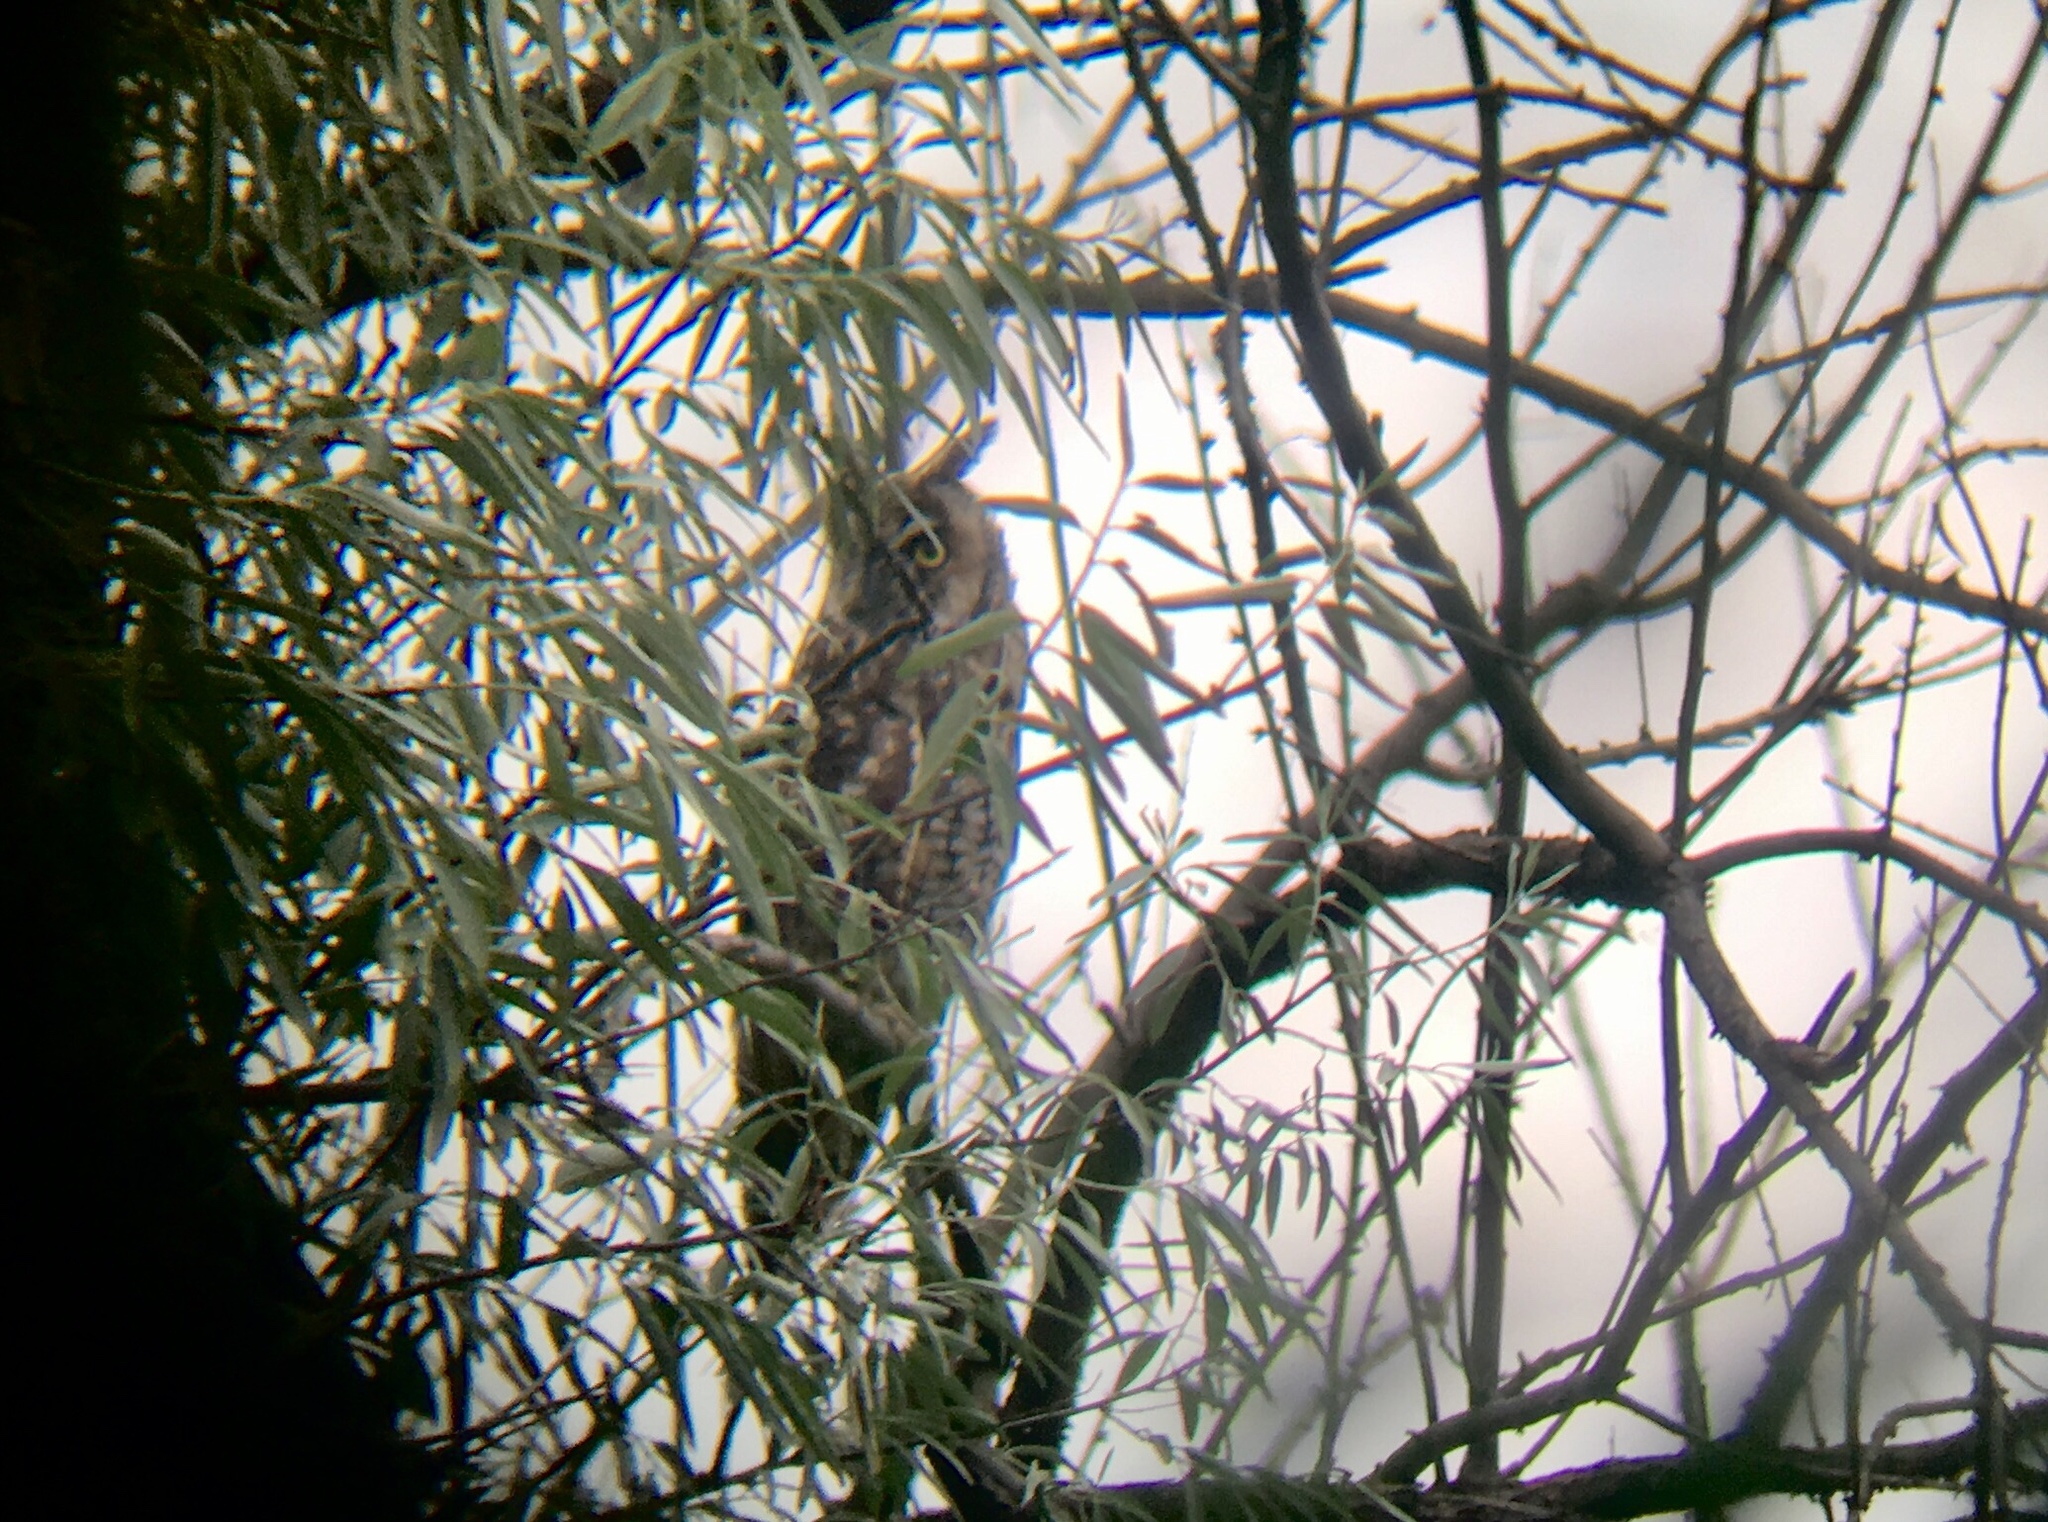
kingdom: Animalia
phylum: Chordata
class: Aves
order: Strigiformes
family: Strigidae
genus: Asio
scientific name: Asio otus
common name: Long-eared owl
